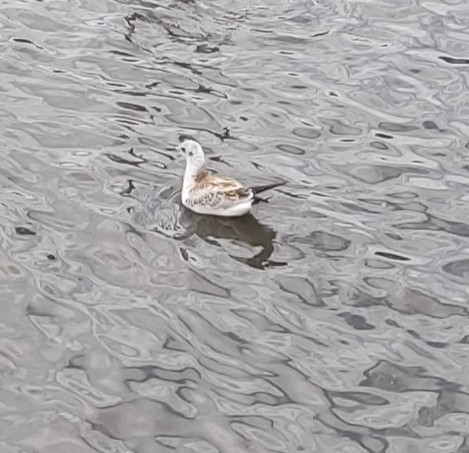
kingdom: Animalia
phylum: Chordata
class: Aves
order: Charadriiformes
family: Laridae
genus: Chroicocephalus
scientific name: Chroicocephalus ridibundus
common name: Black-headed gull
